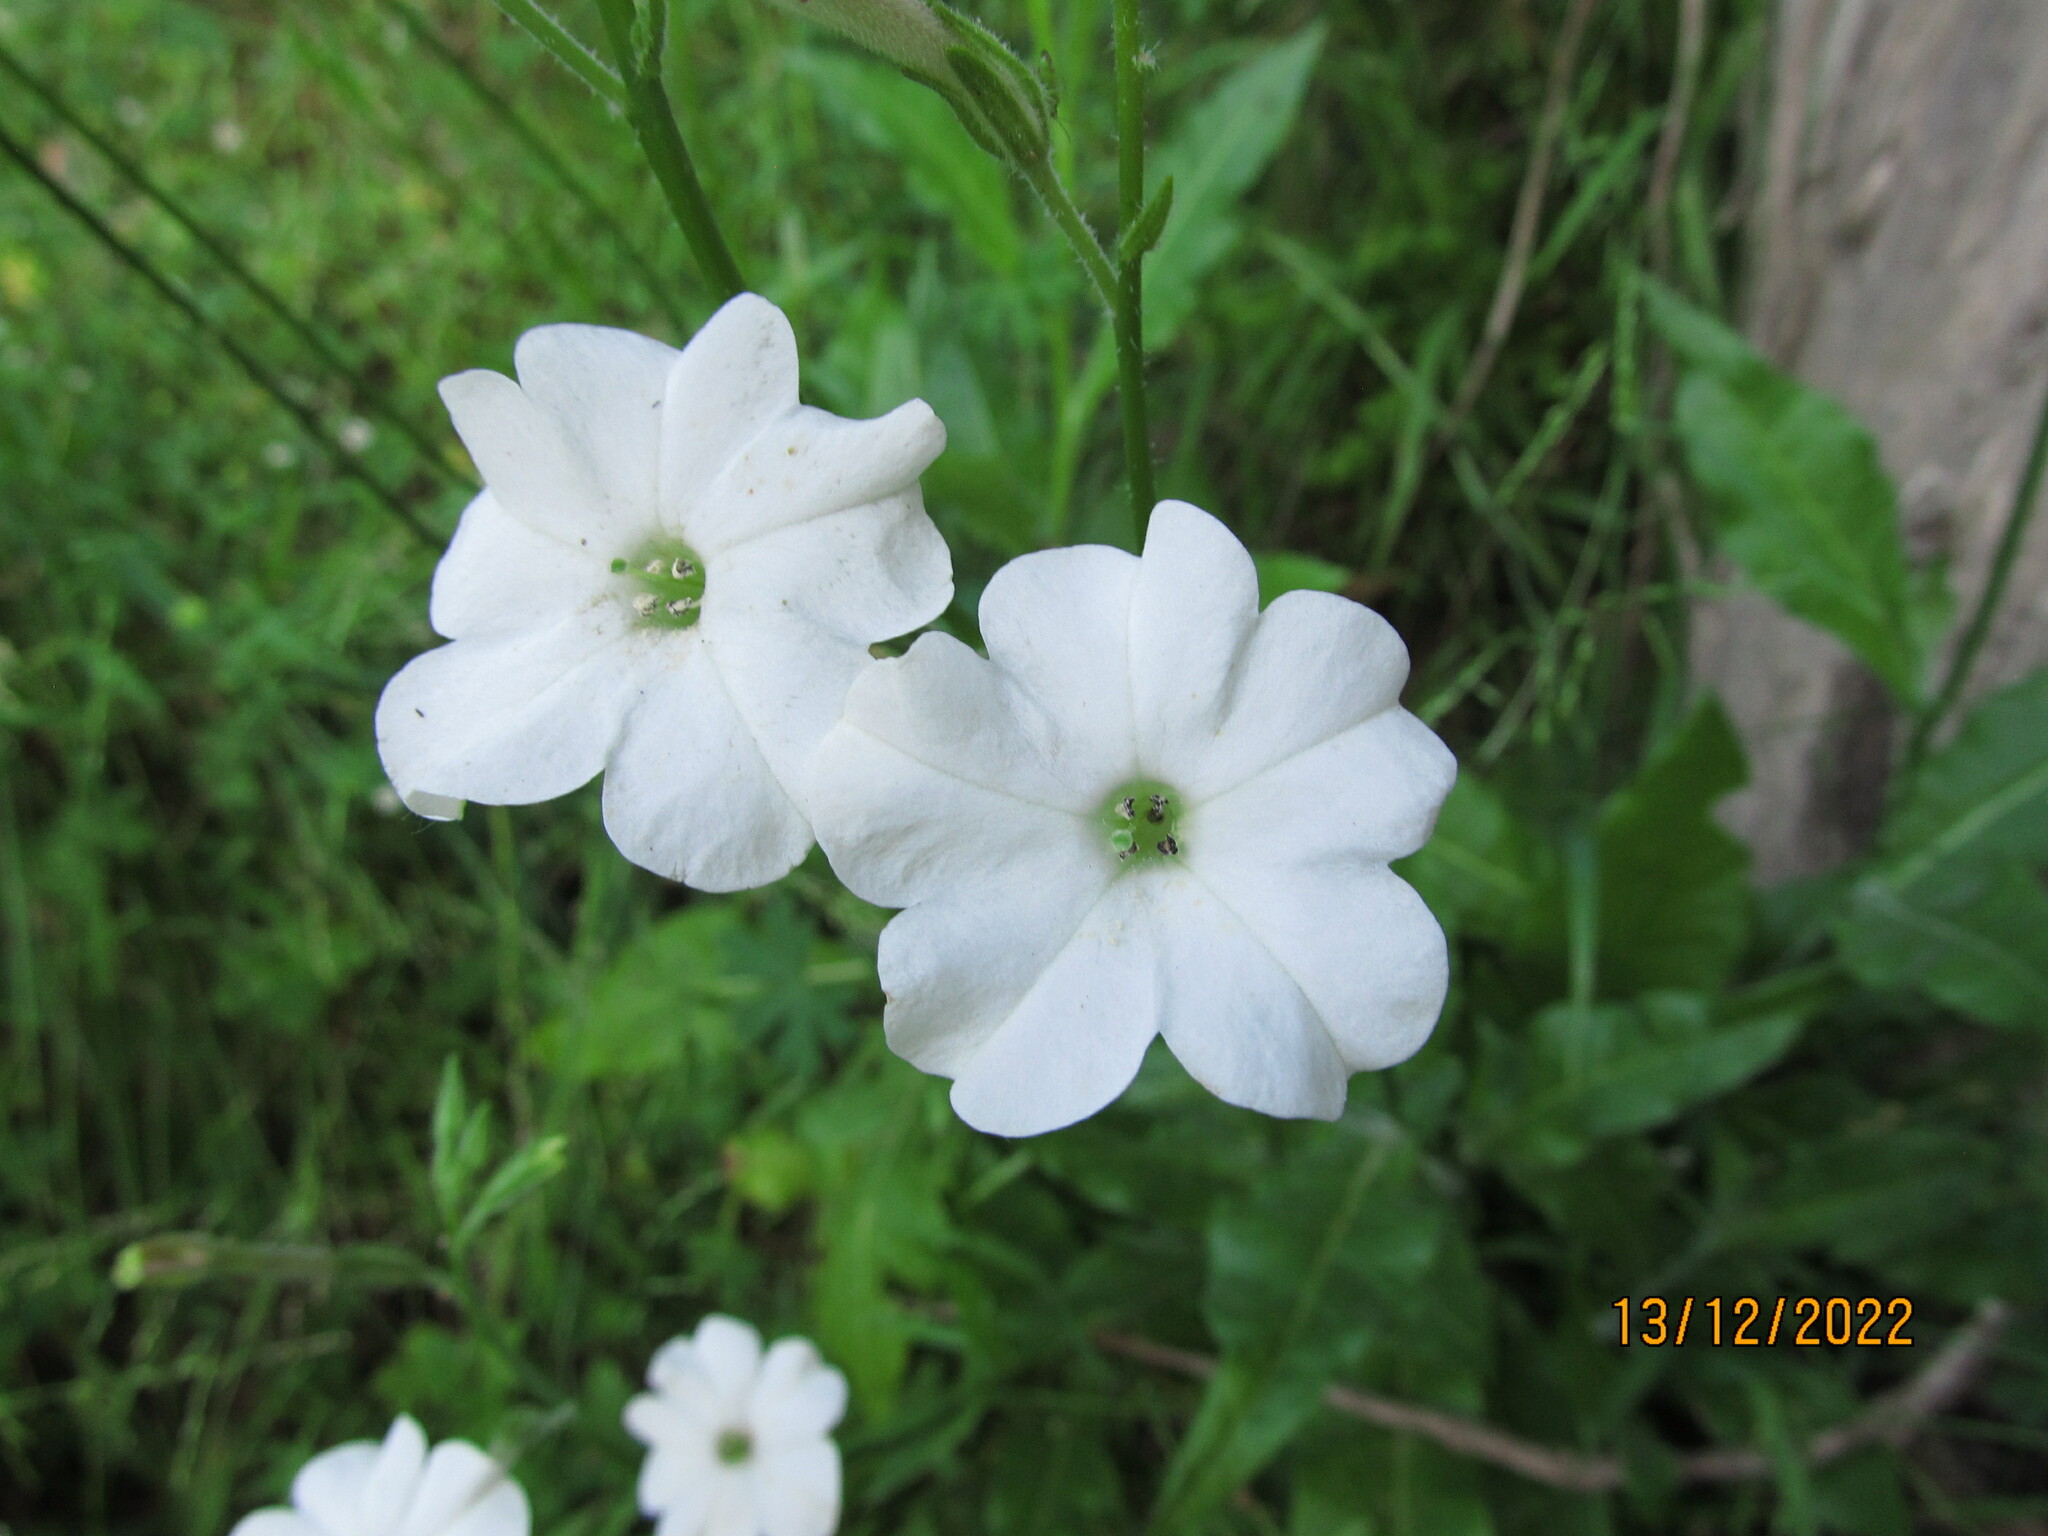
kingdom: Plantae
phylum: Tracheophyta
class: Magnoliopsida
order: Solanales
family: Solanaceae
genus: Nicotiana
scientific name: Nicotiana suaveolens
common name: Australian tobacco
